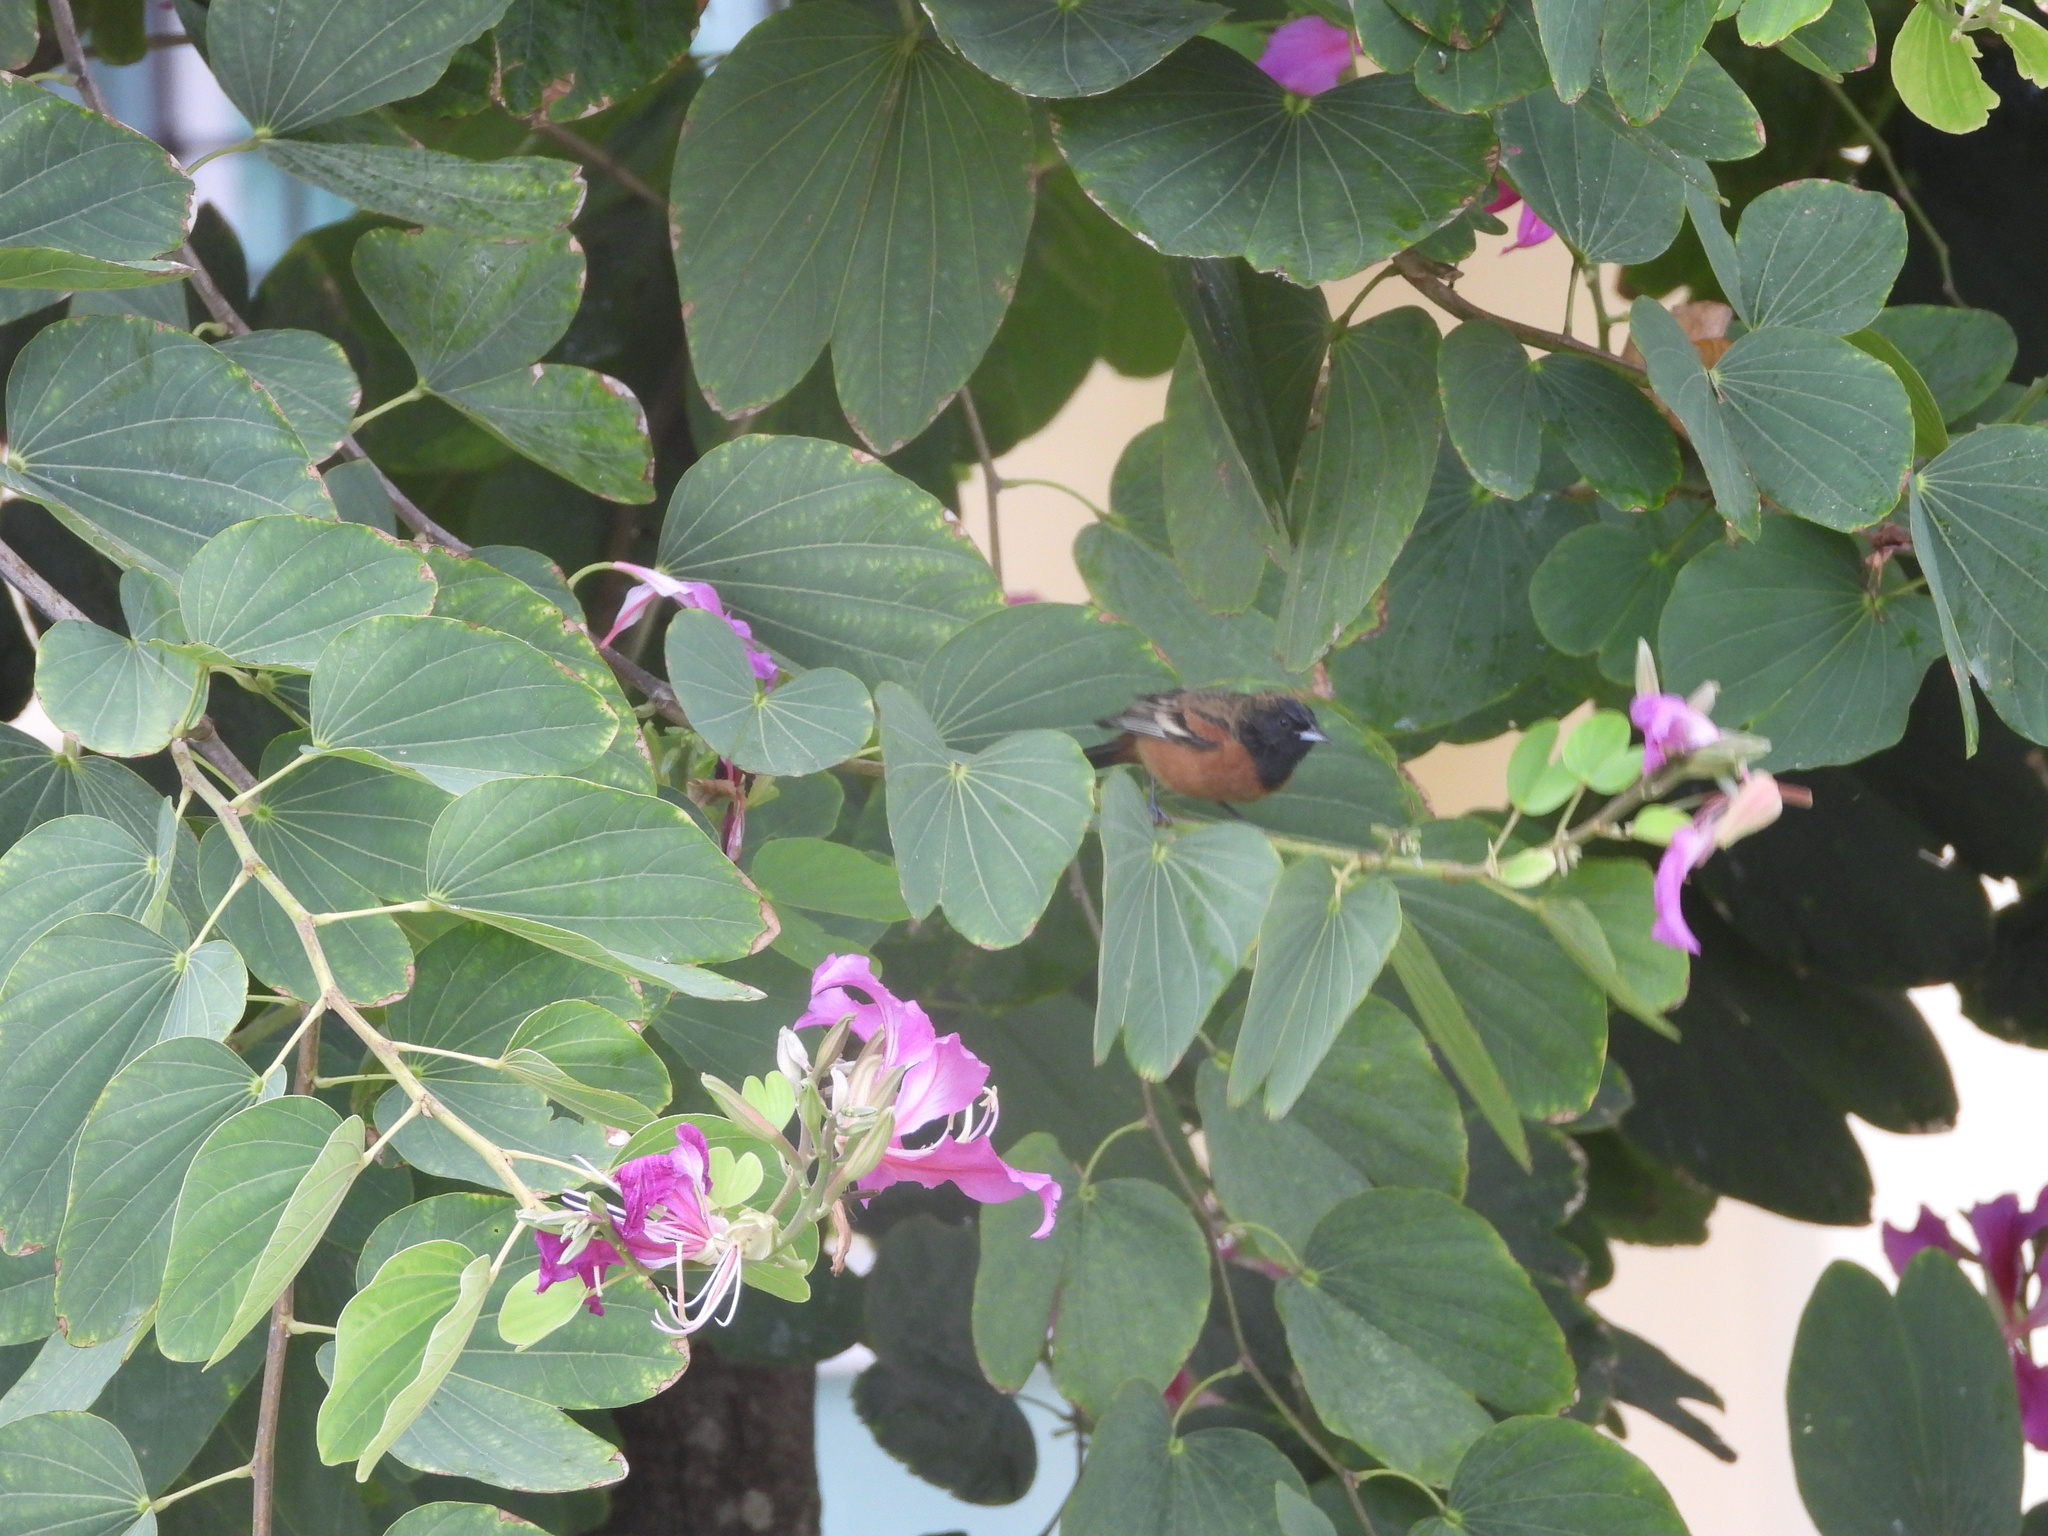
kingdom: Animalia
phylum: Chordata
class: Aves
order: Passeriformes
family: Icteridae
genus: Icterus
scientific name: Icterus spurius
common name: Orchard oriole
